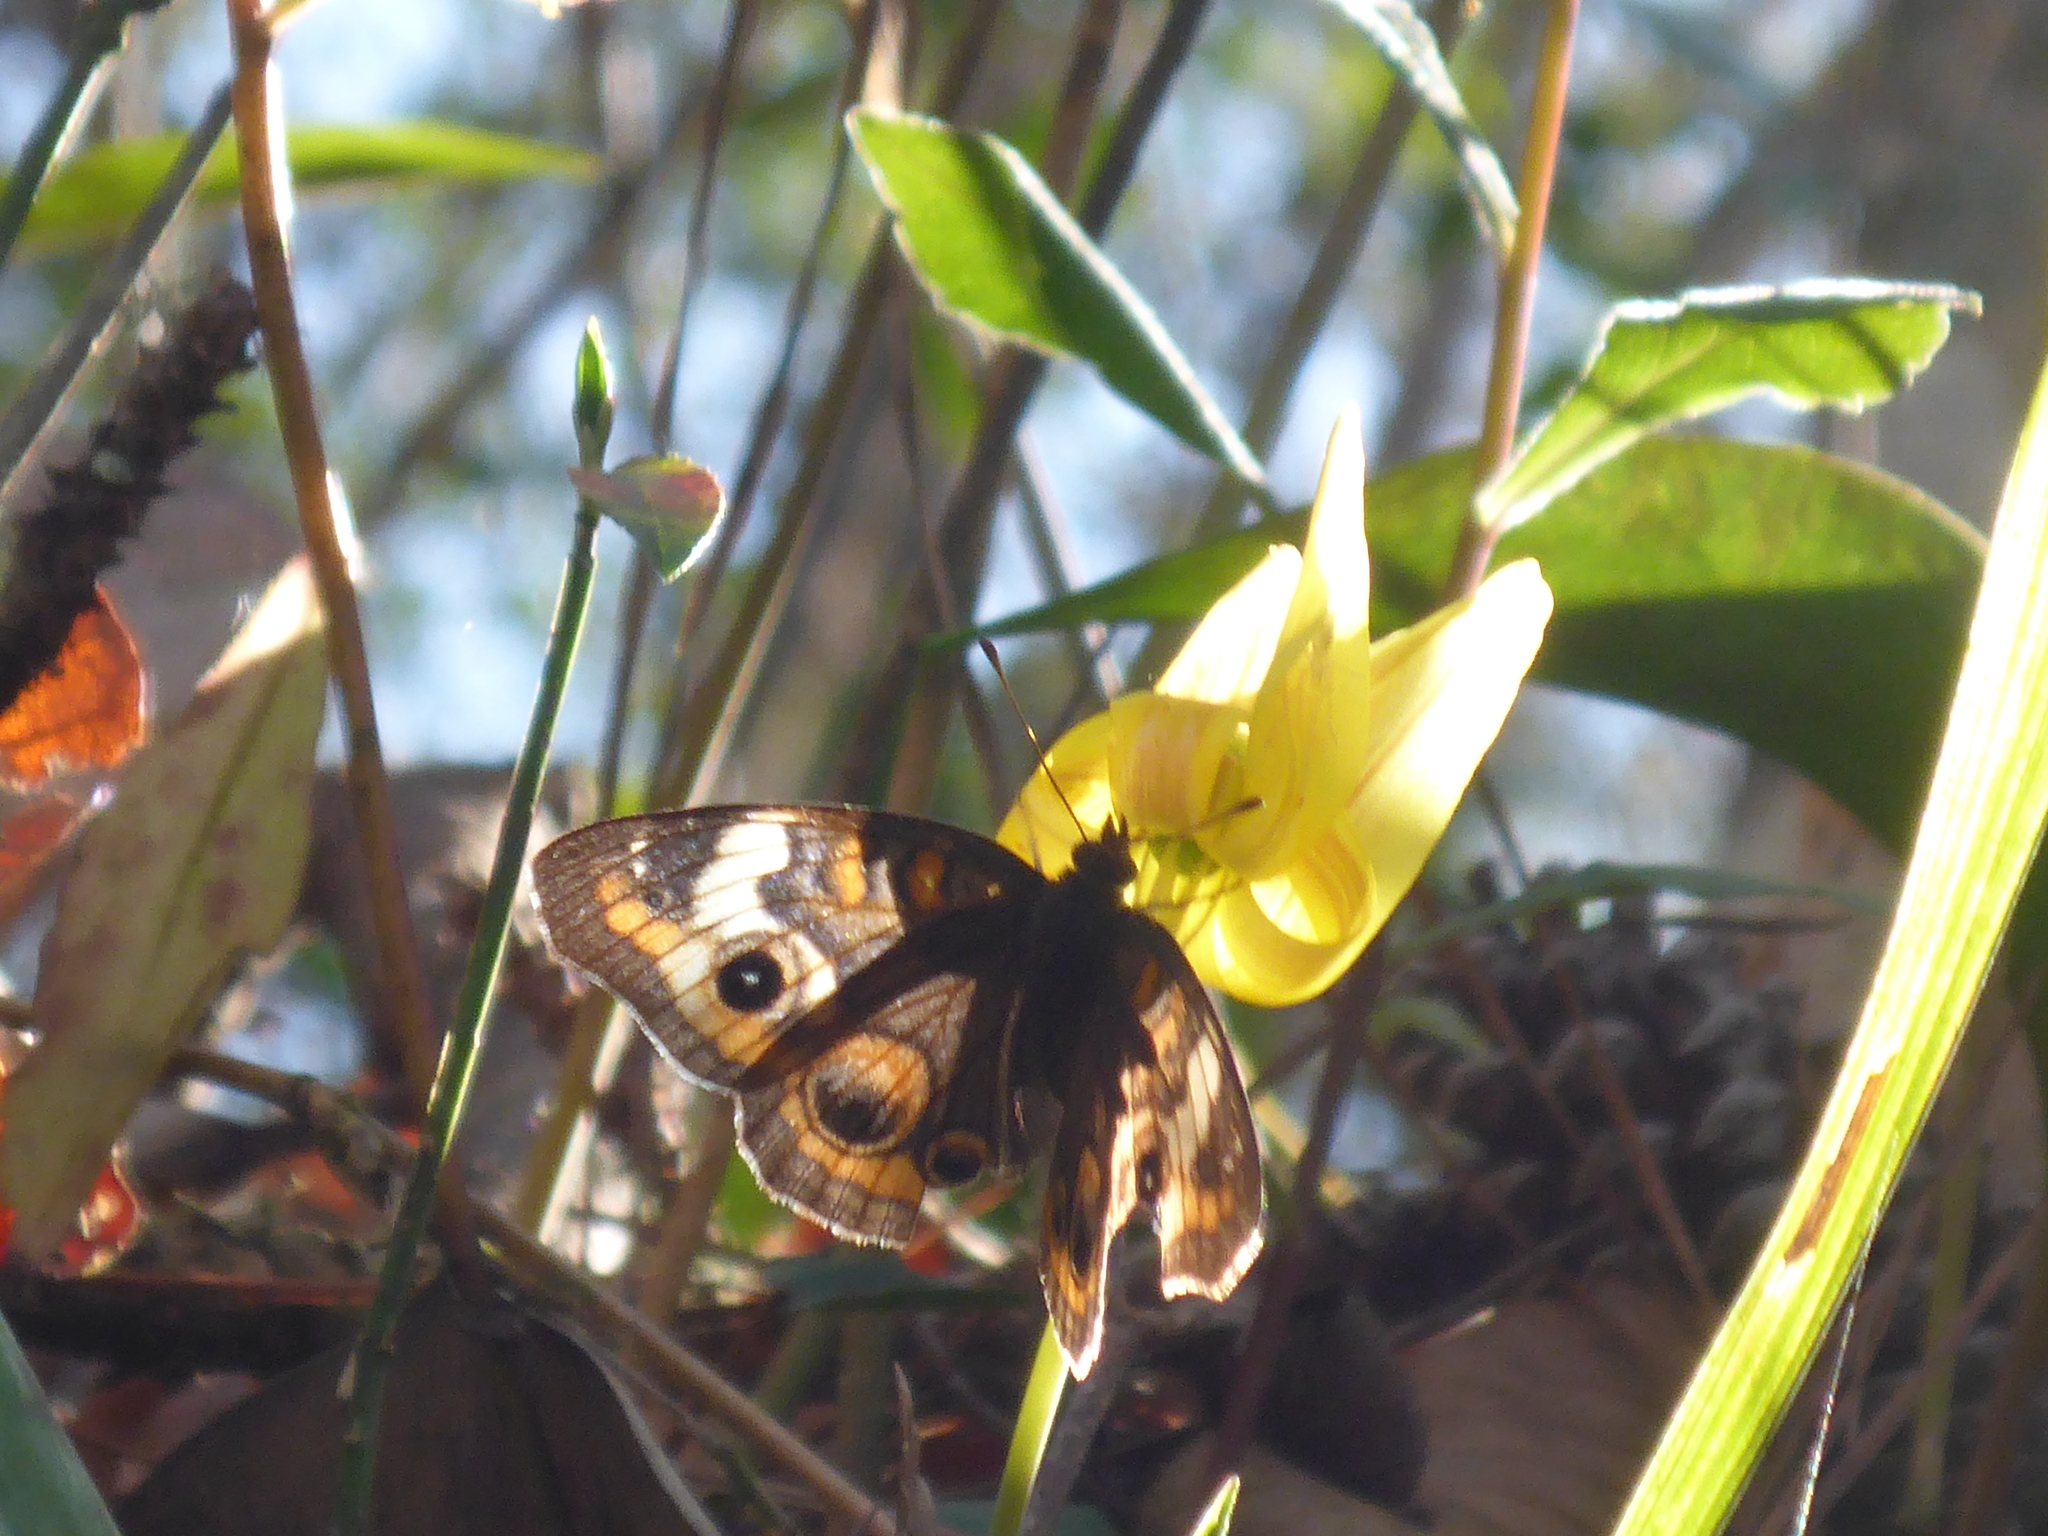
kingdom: Animalia
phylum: Arthropoda
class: Insecta
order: Lepidoptera
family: Nymphalidae
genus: Junonia
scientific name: Junonia coenia
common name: Common buckeye
